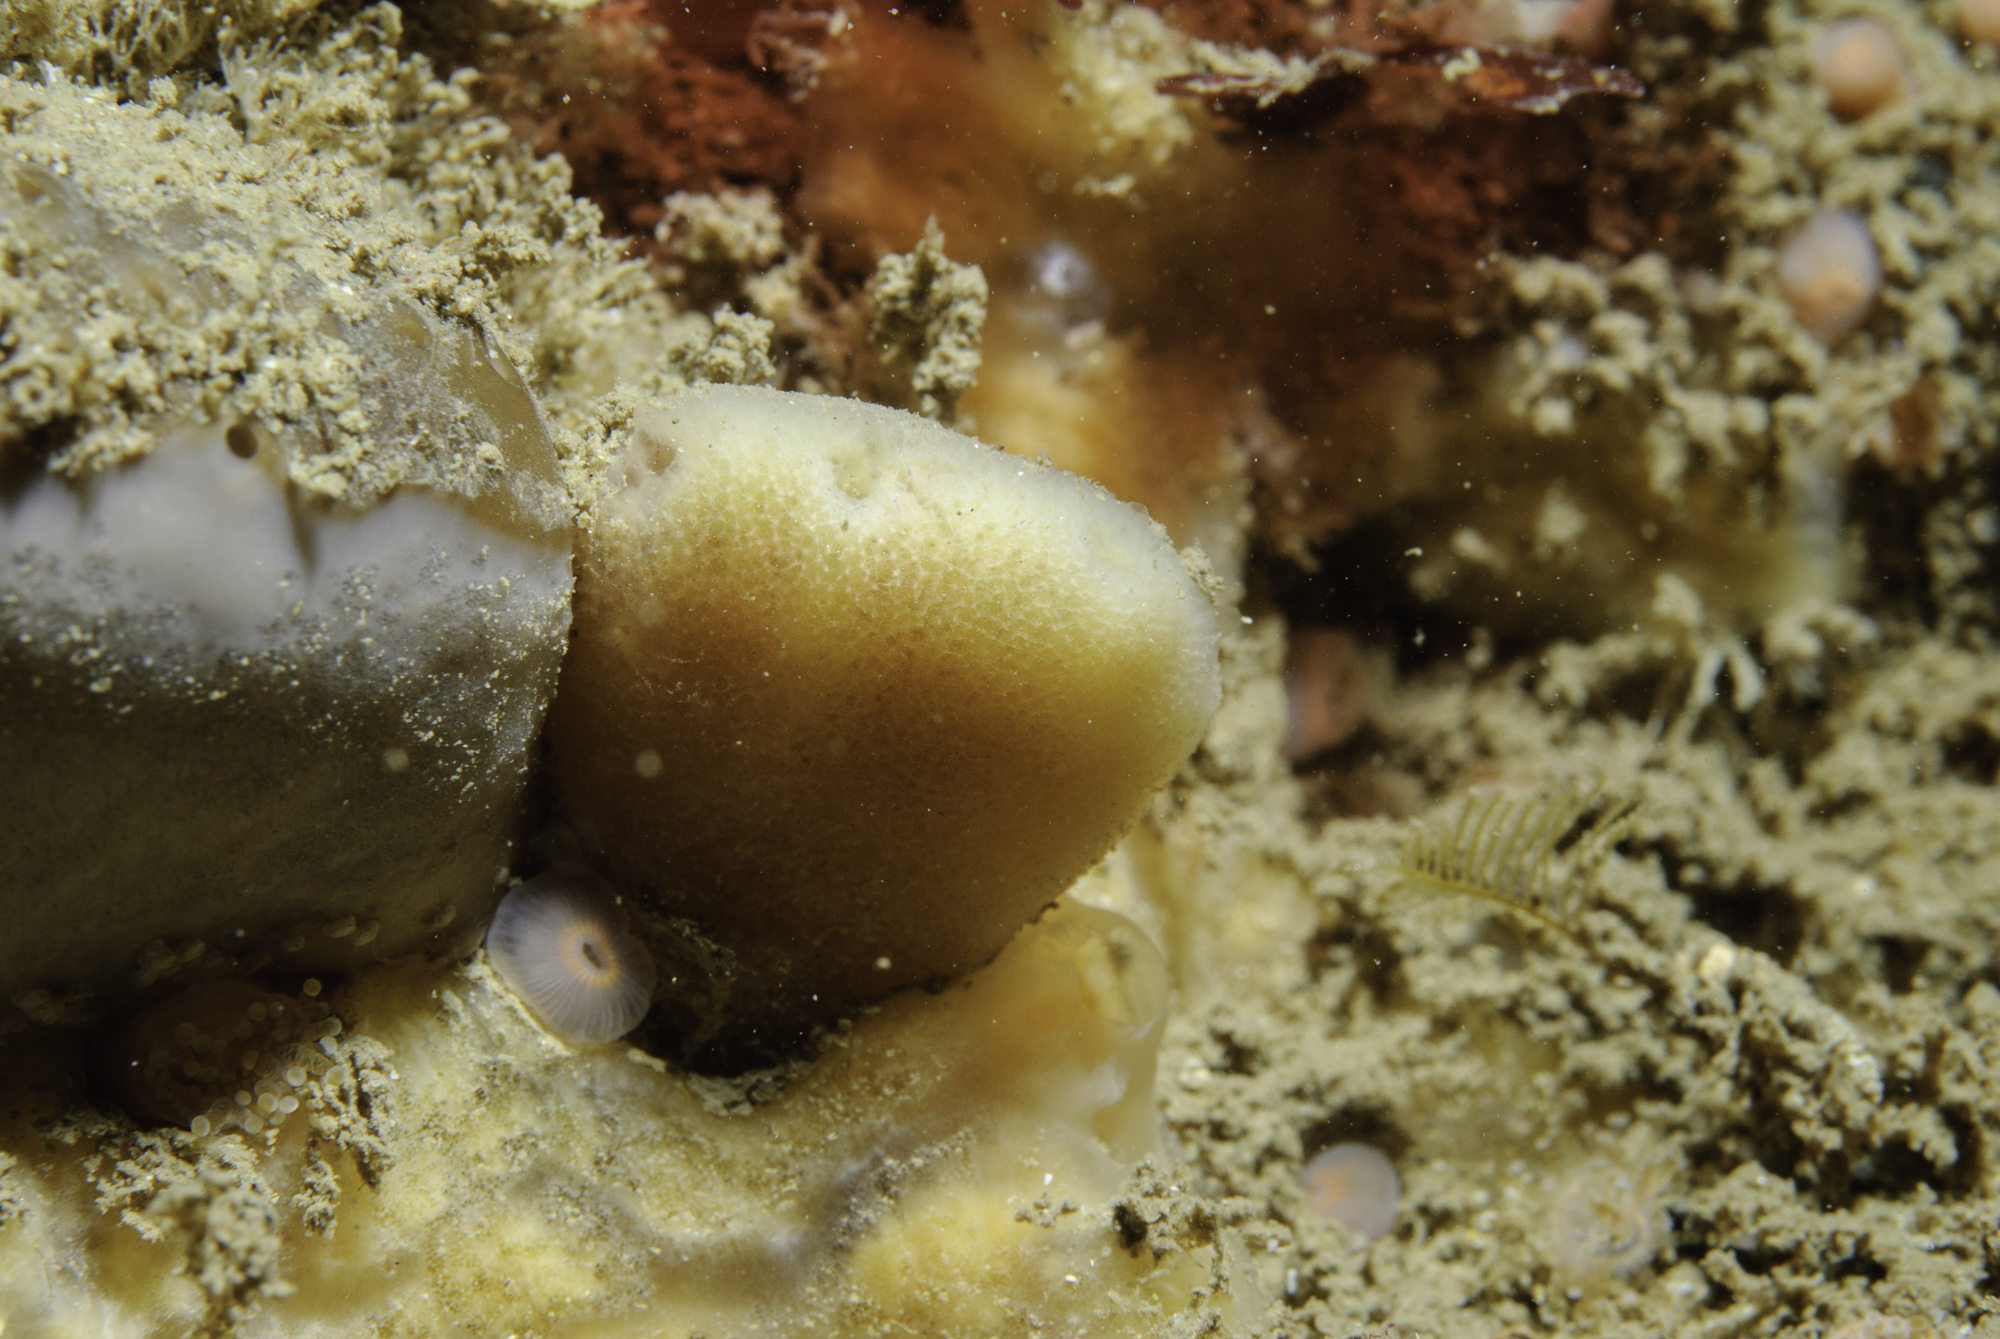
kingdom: Animalia
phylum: Porifera
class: Demospongiae
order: Dendroceratida
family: Dictyodendrillidae
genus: Spongionella
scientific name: Spongionella pulchella
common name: Gorgeous horny sponge
